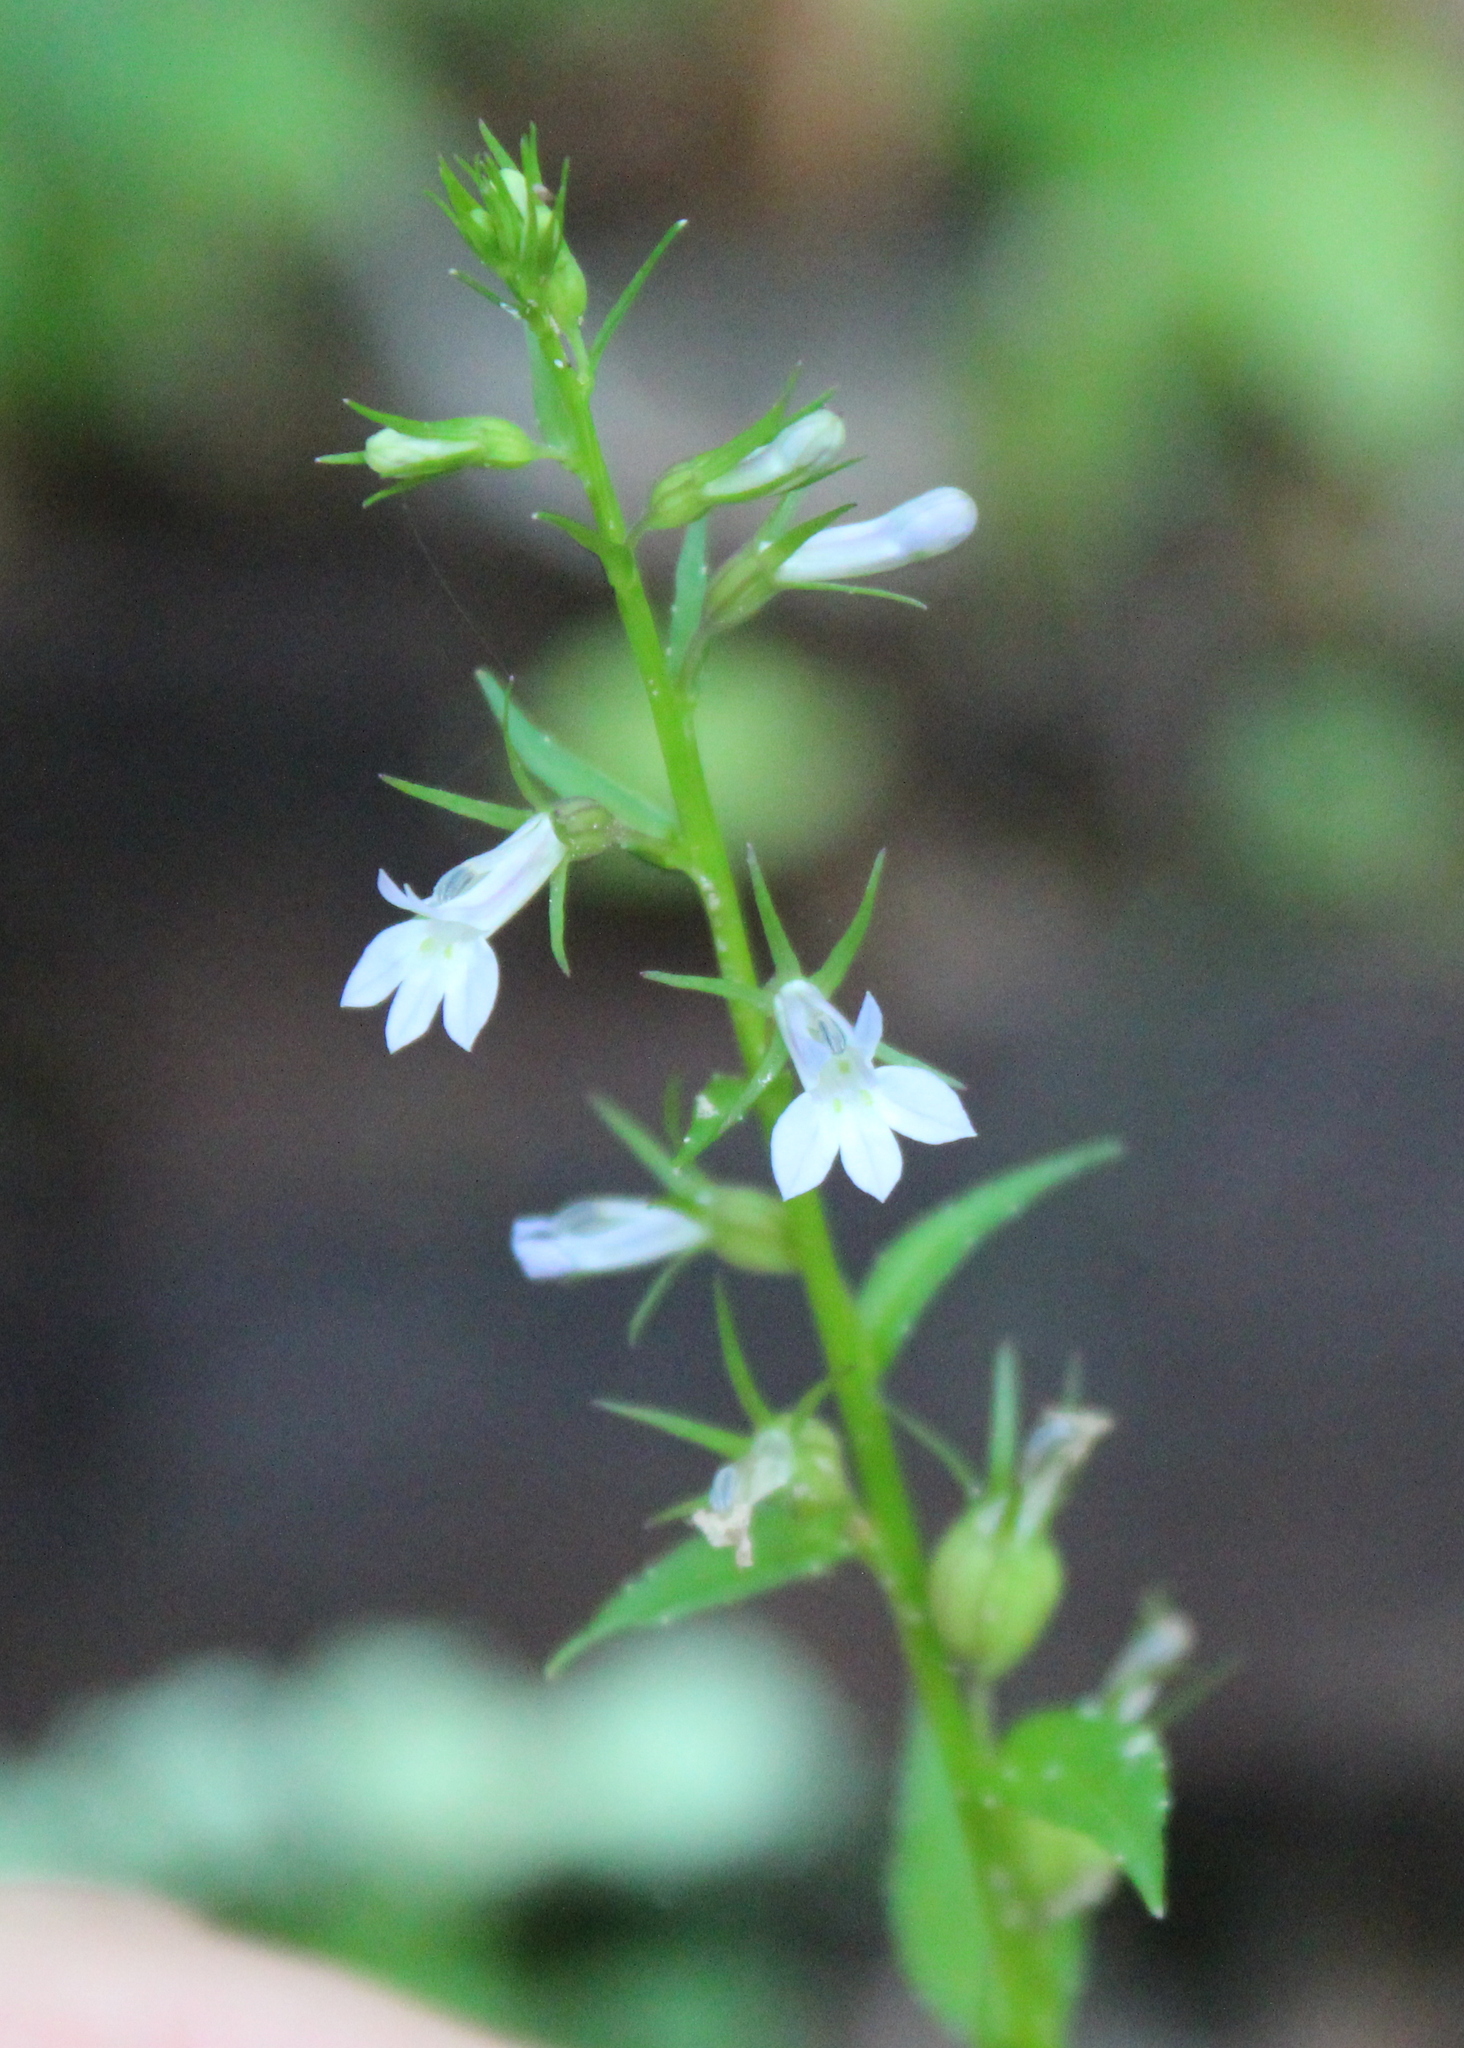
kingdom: Plantae
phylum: Tracheophyta
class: Magnoliopsida
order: Asterales
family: Campanulaceae
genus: Lobelia
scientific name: Lobelia inflata
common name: Indian tobacco
